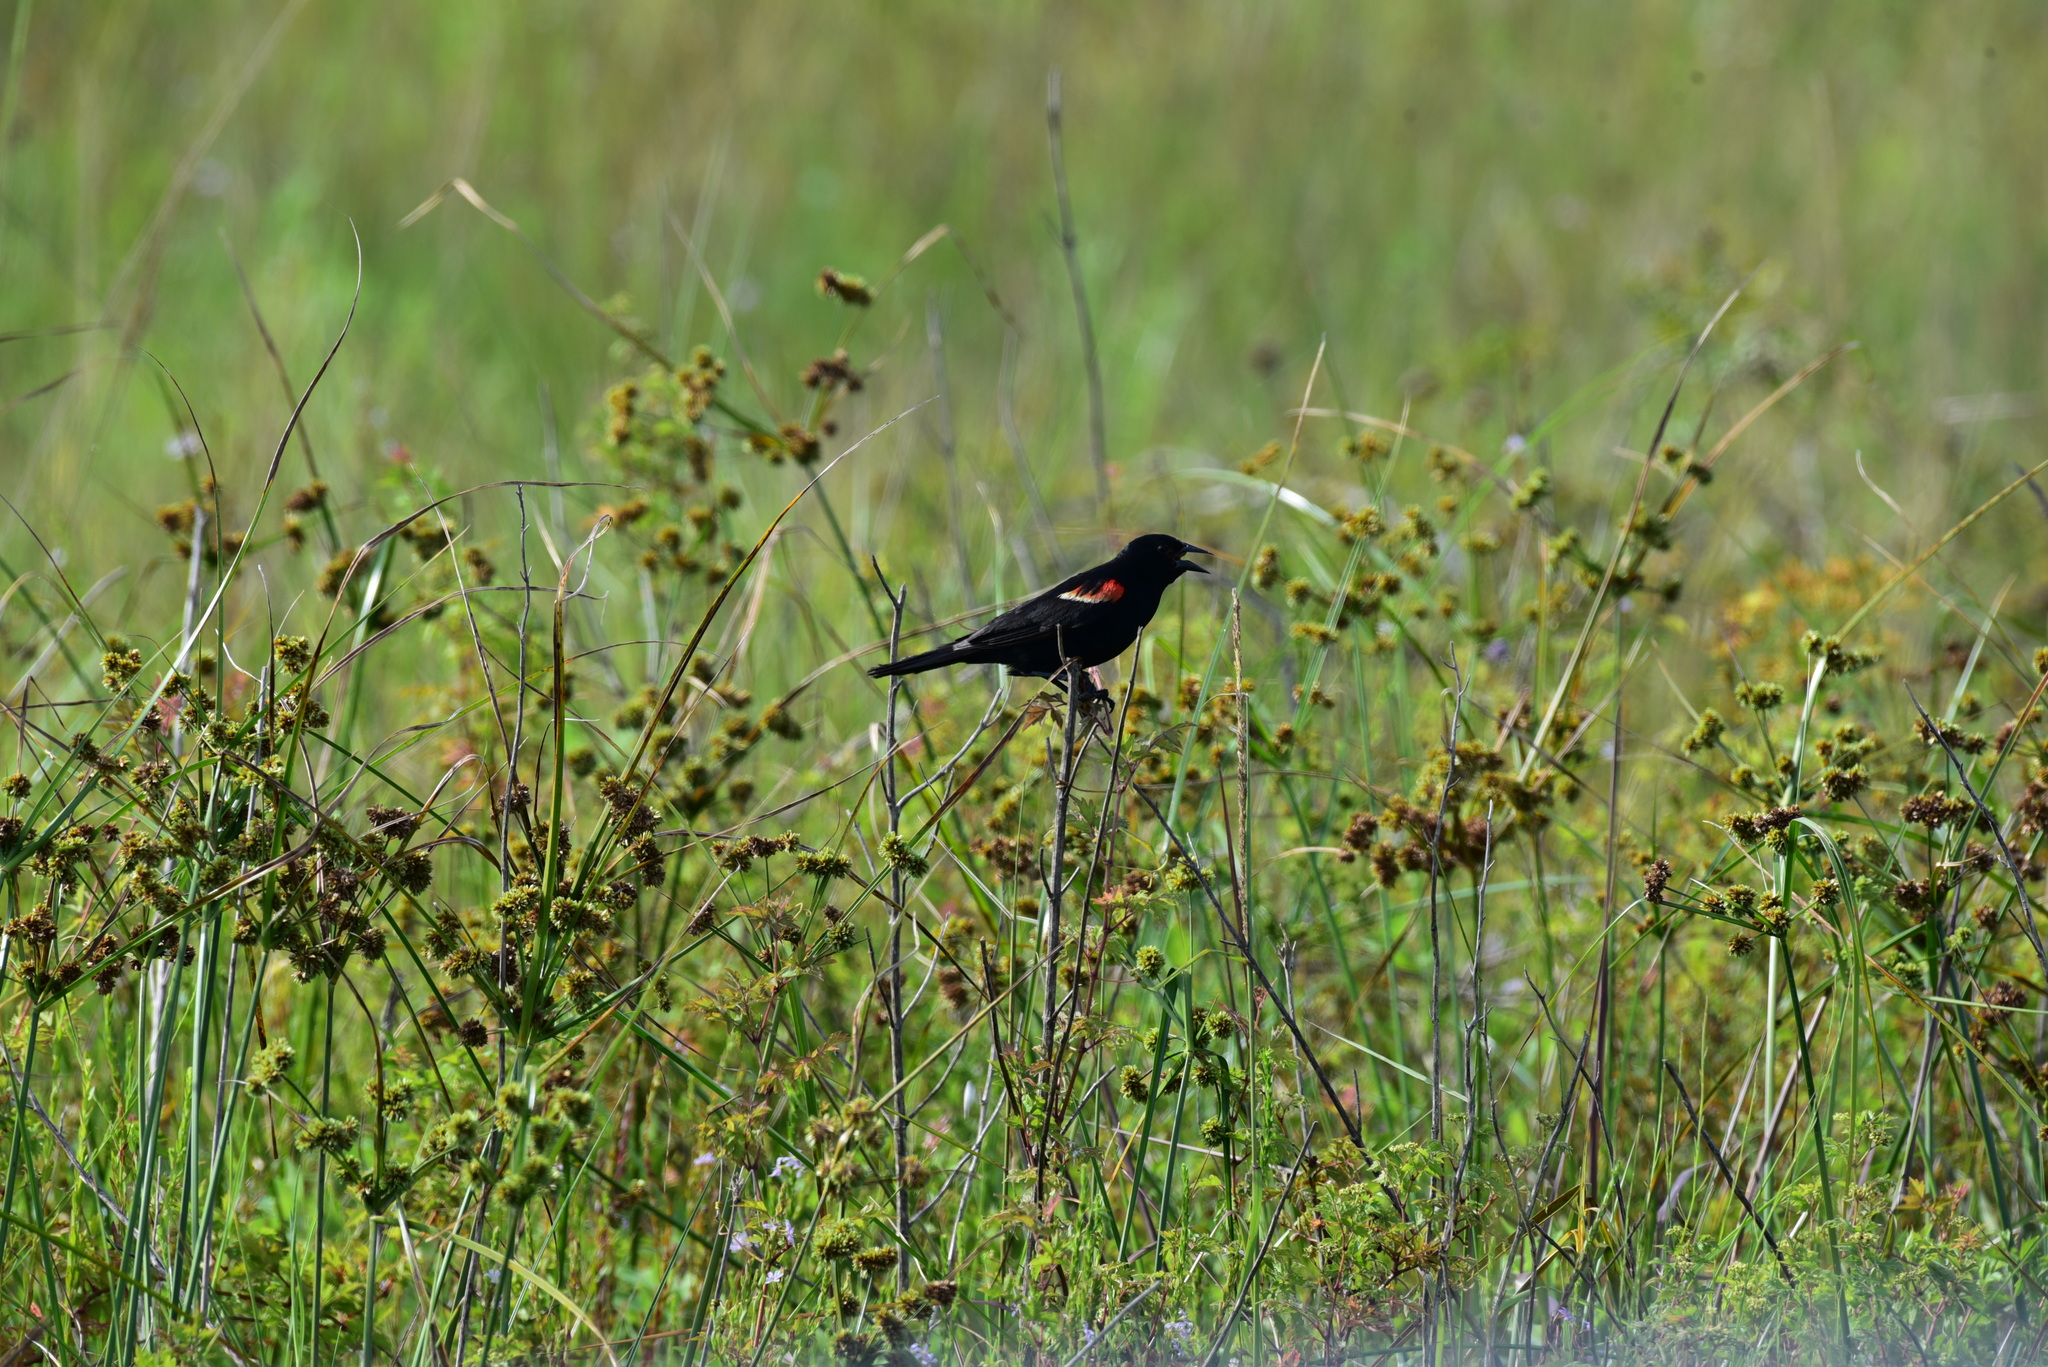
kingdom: Animalia
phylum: Chordata
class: Aves
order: Passeriformes
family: Icteridae
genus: Agelaius
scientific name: Agelaius phoeniceus
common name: Red-winged blackbird
